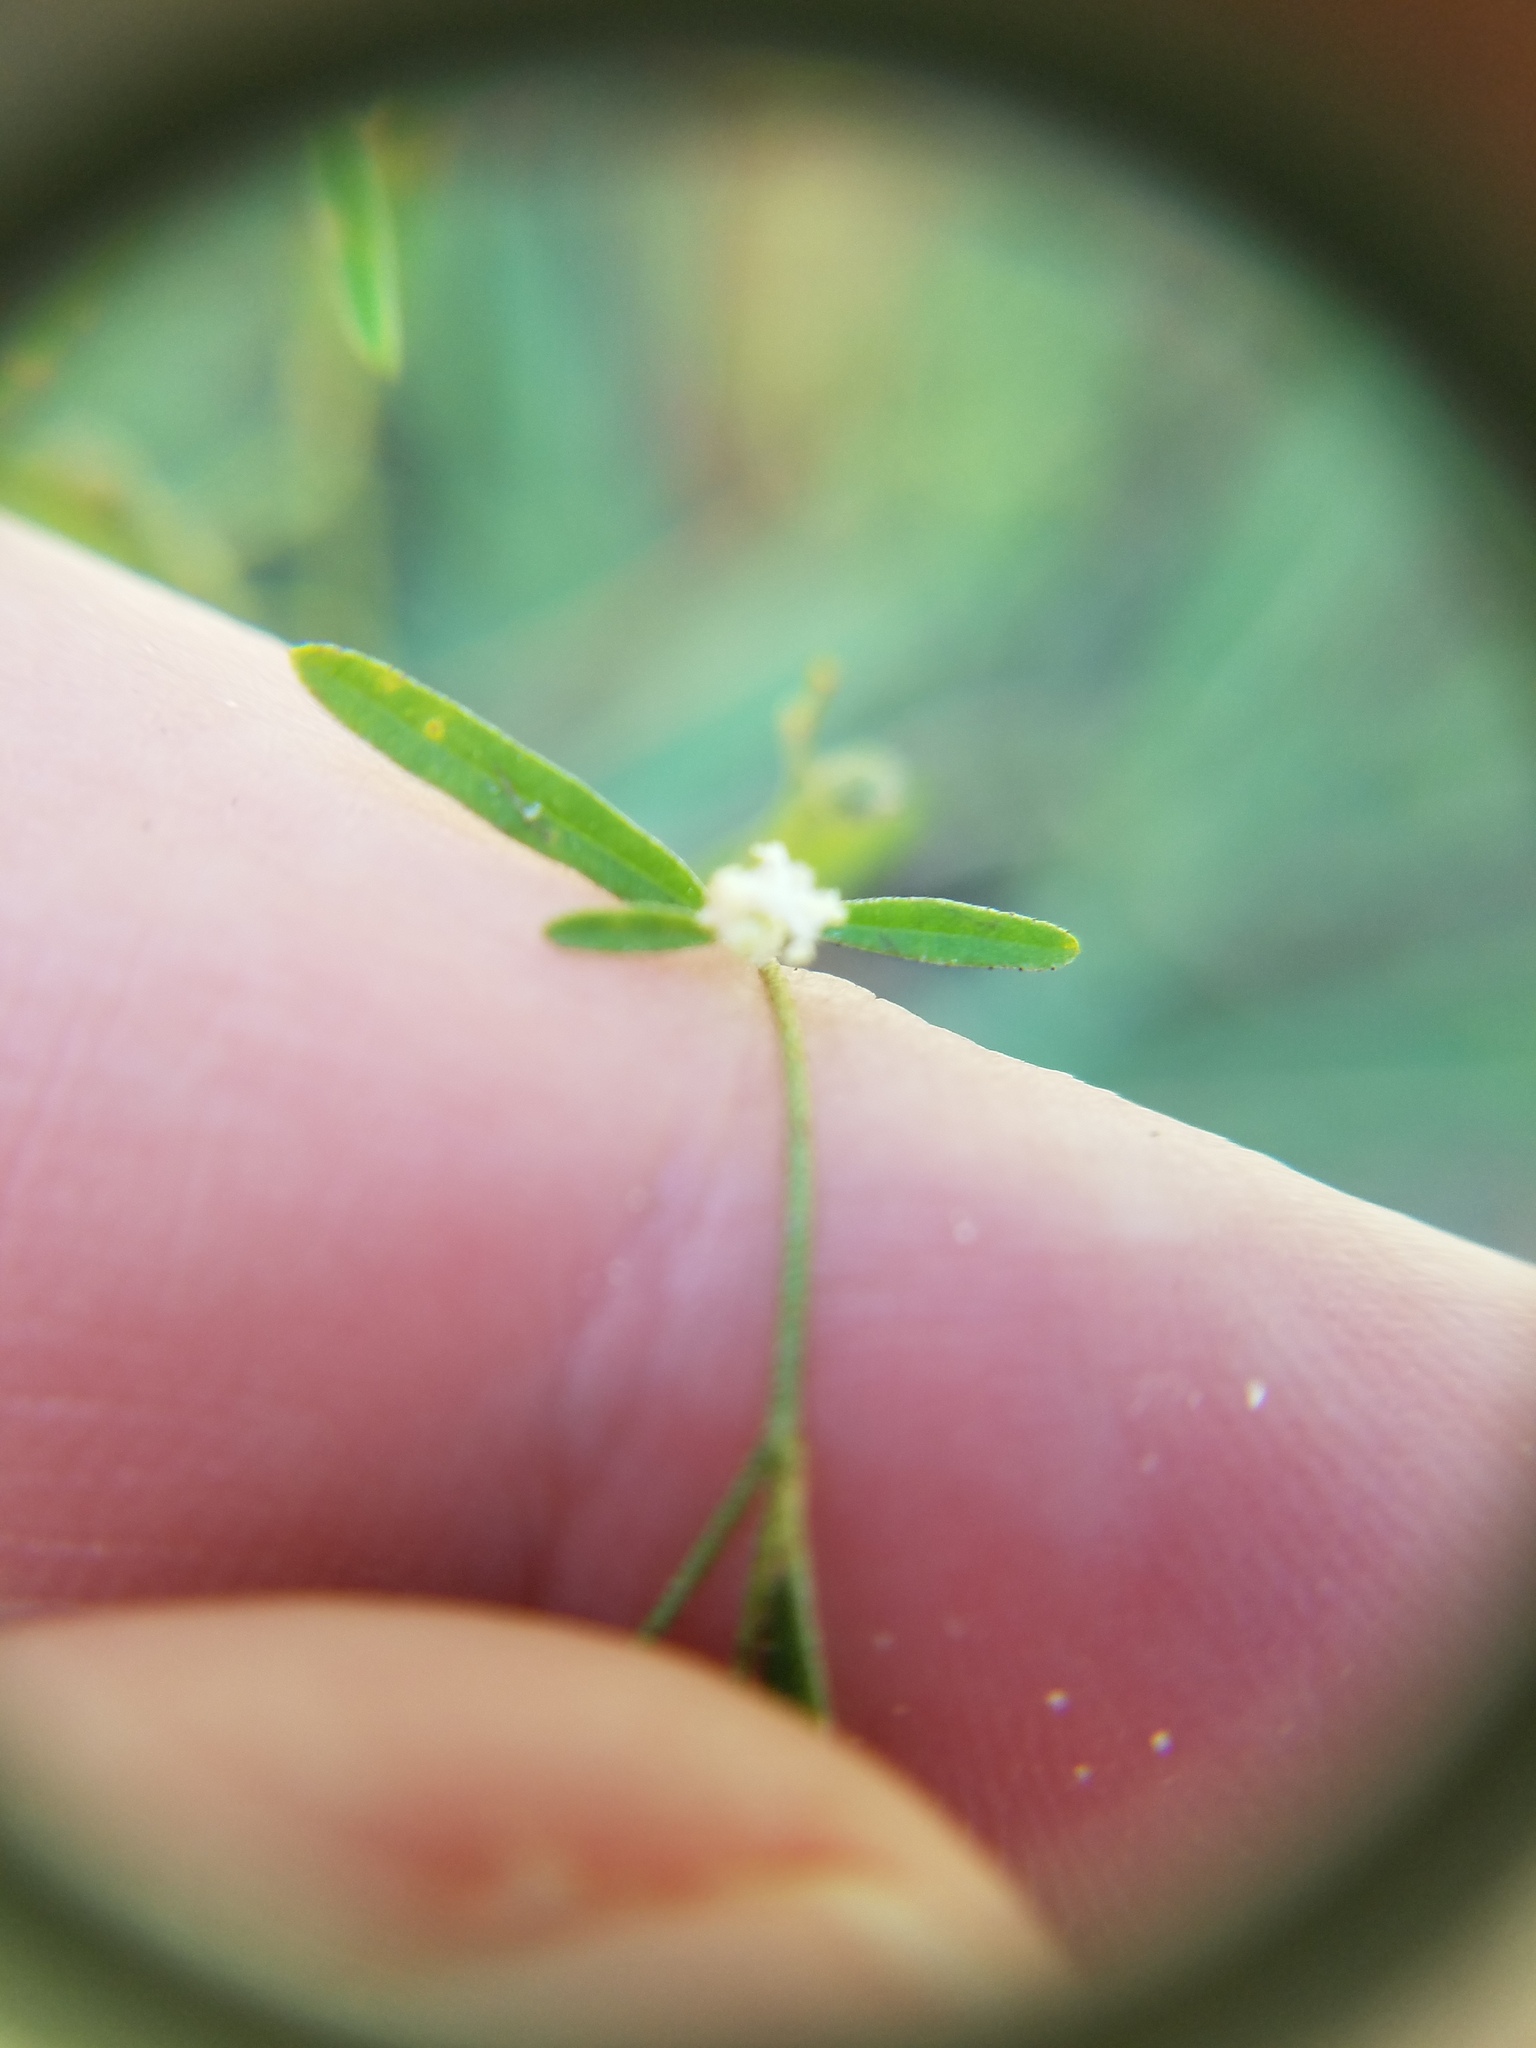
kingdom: Plantae
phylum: Tracheophyta
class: Magnoliopsida
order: Malpighiales
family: Euphorbiaceae
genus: Croton
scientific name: Croton michauxii
